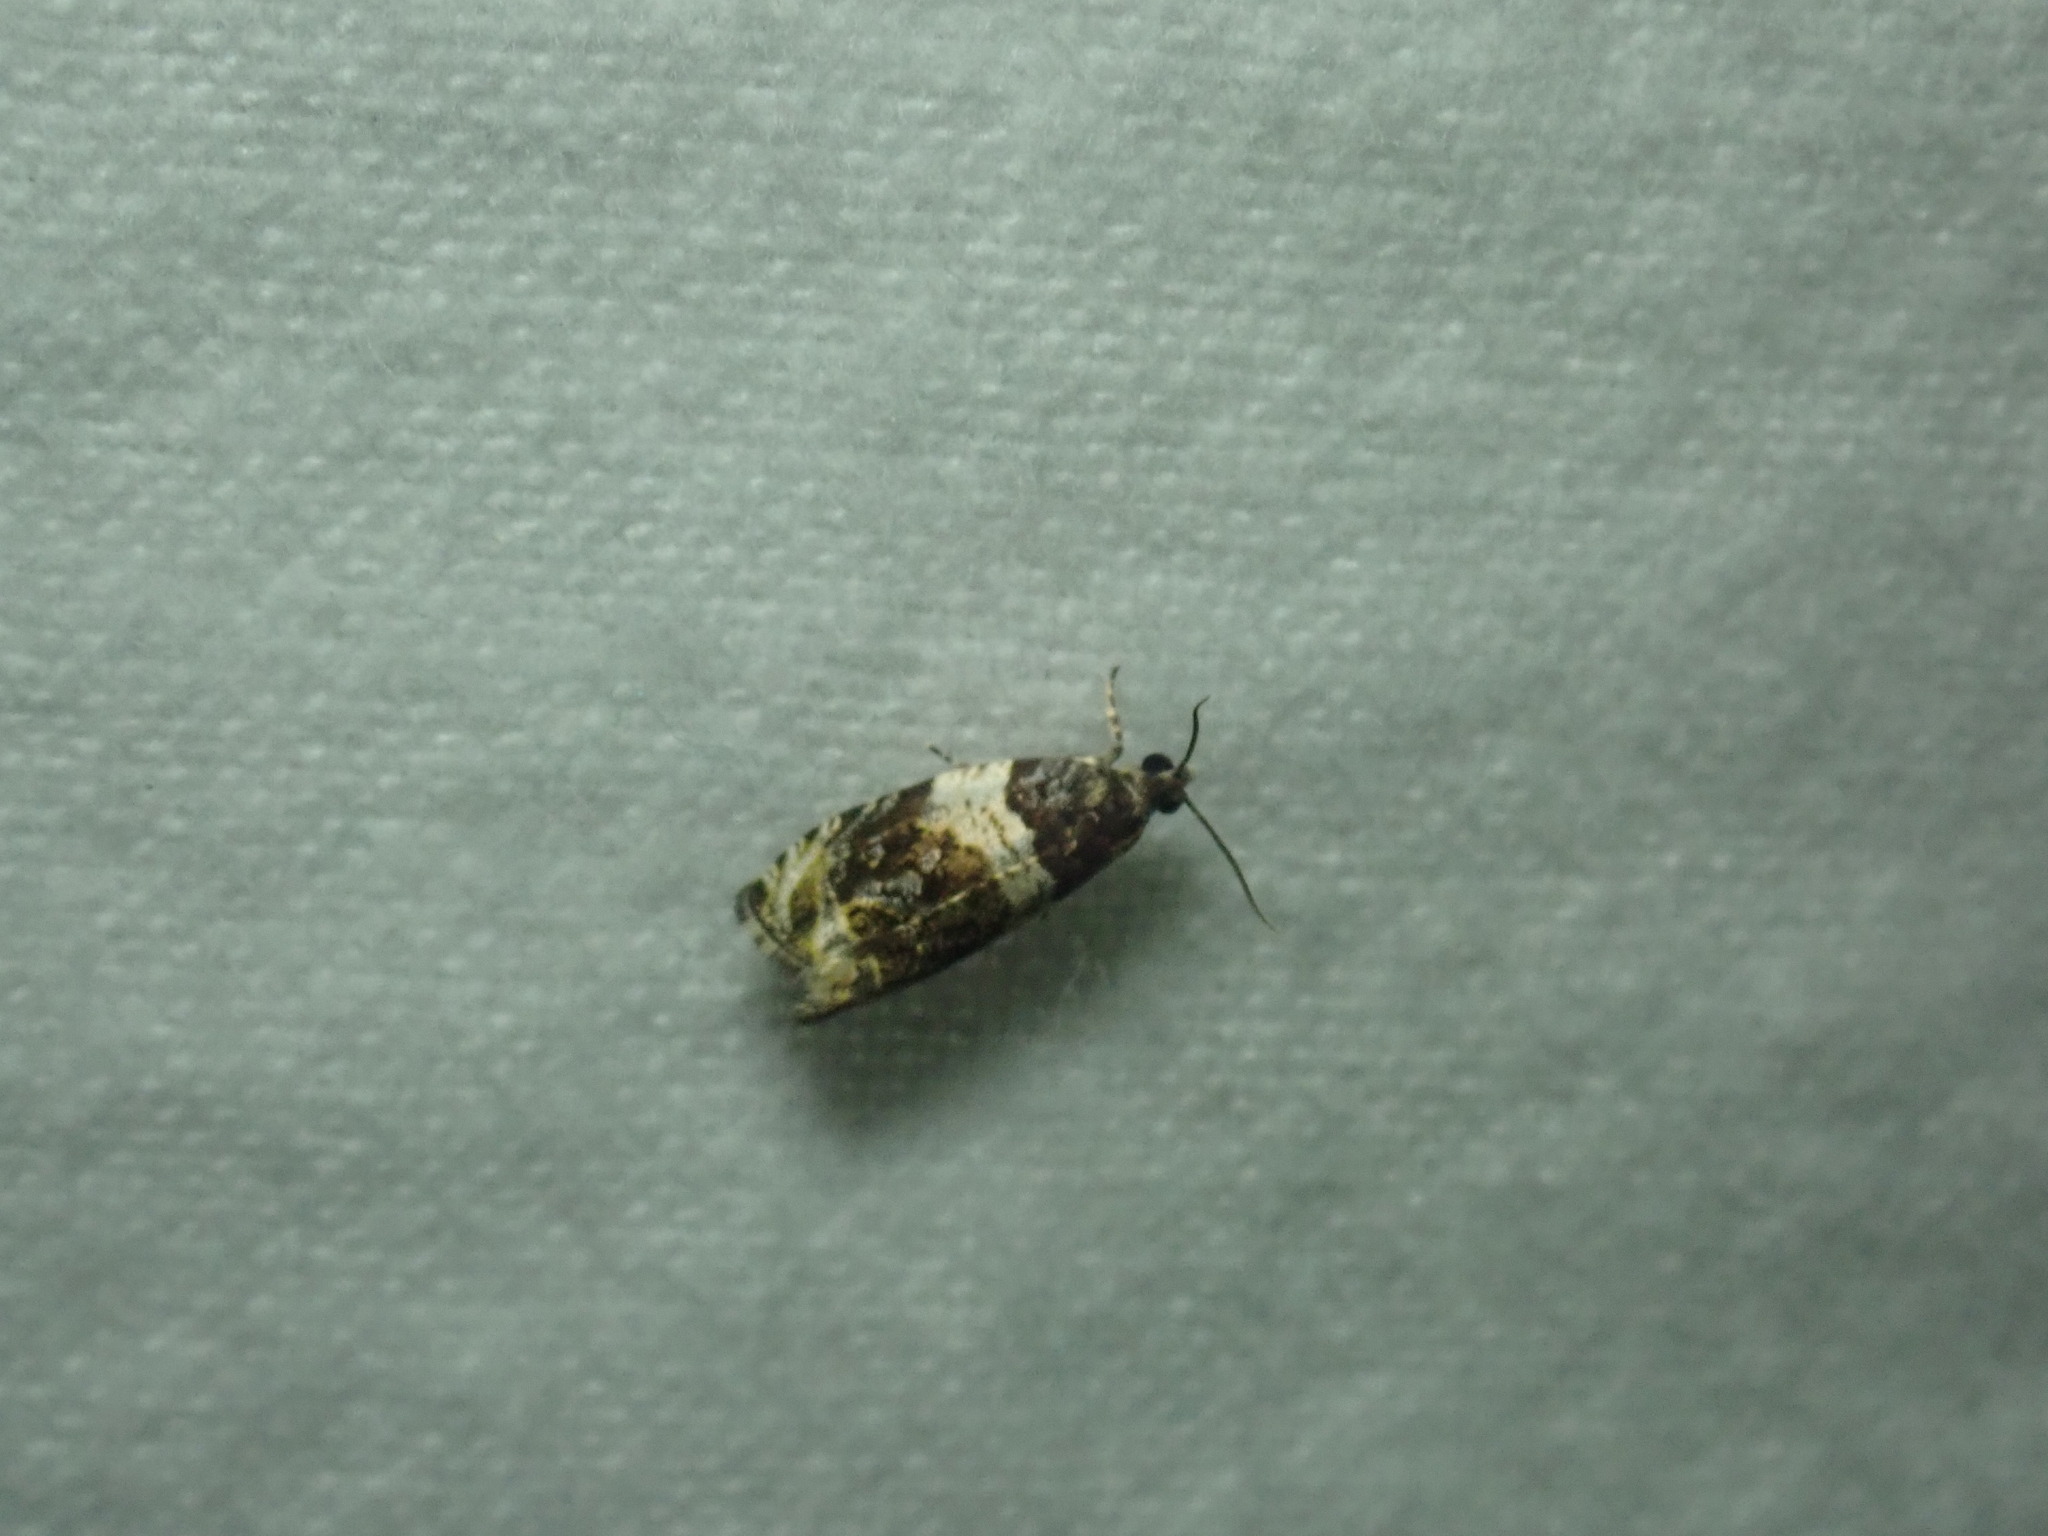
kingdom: Animalia
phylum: Arthropoda
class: Insecta
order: Lepidoptera
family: Tortricidae
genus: Olethreutes
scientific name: Olethreutes fasciatana
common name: Banded olethreutes moth
